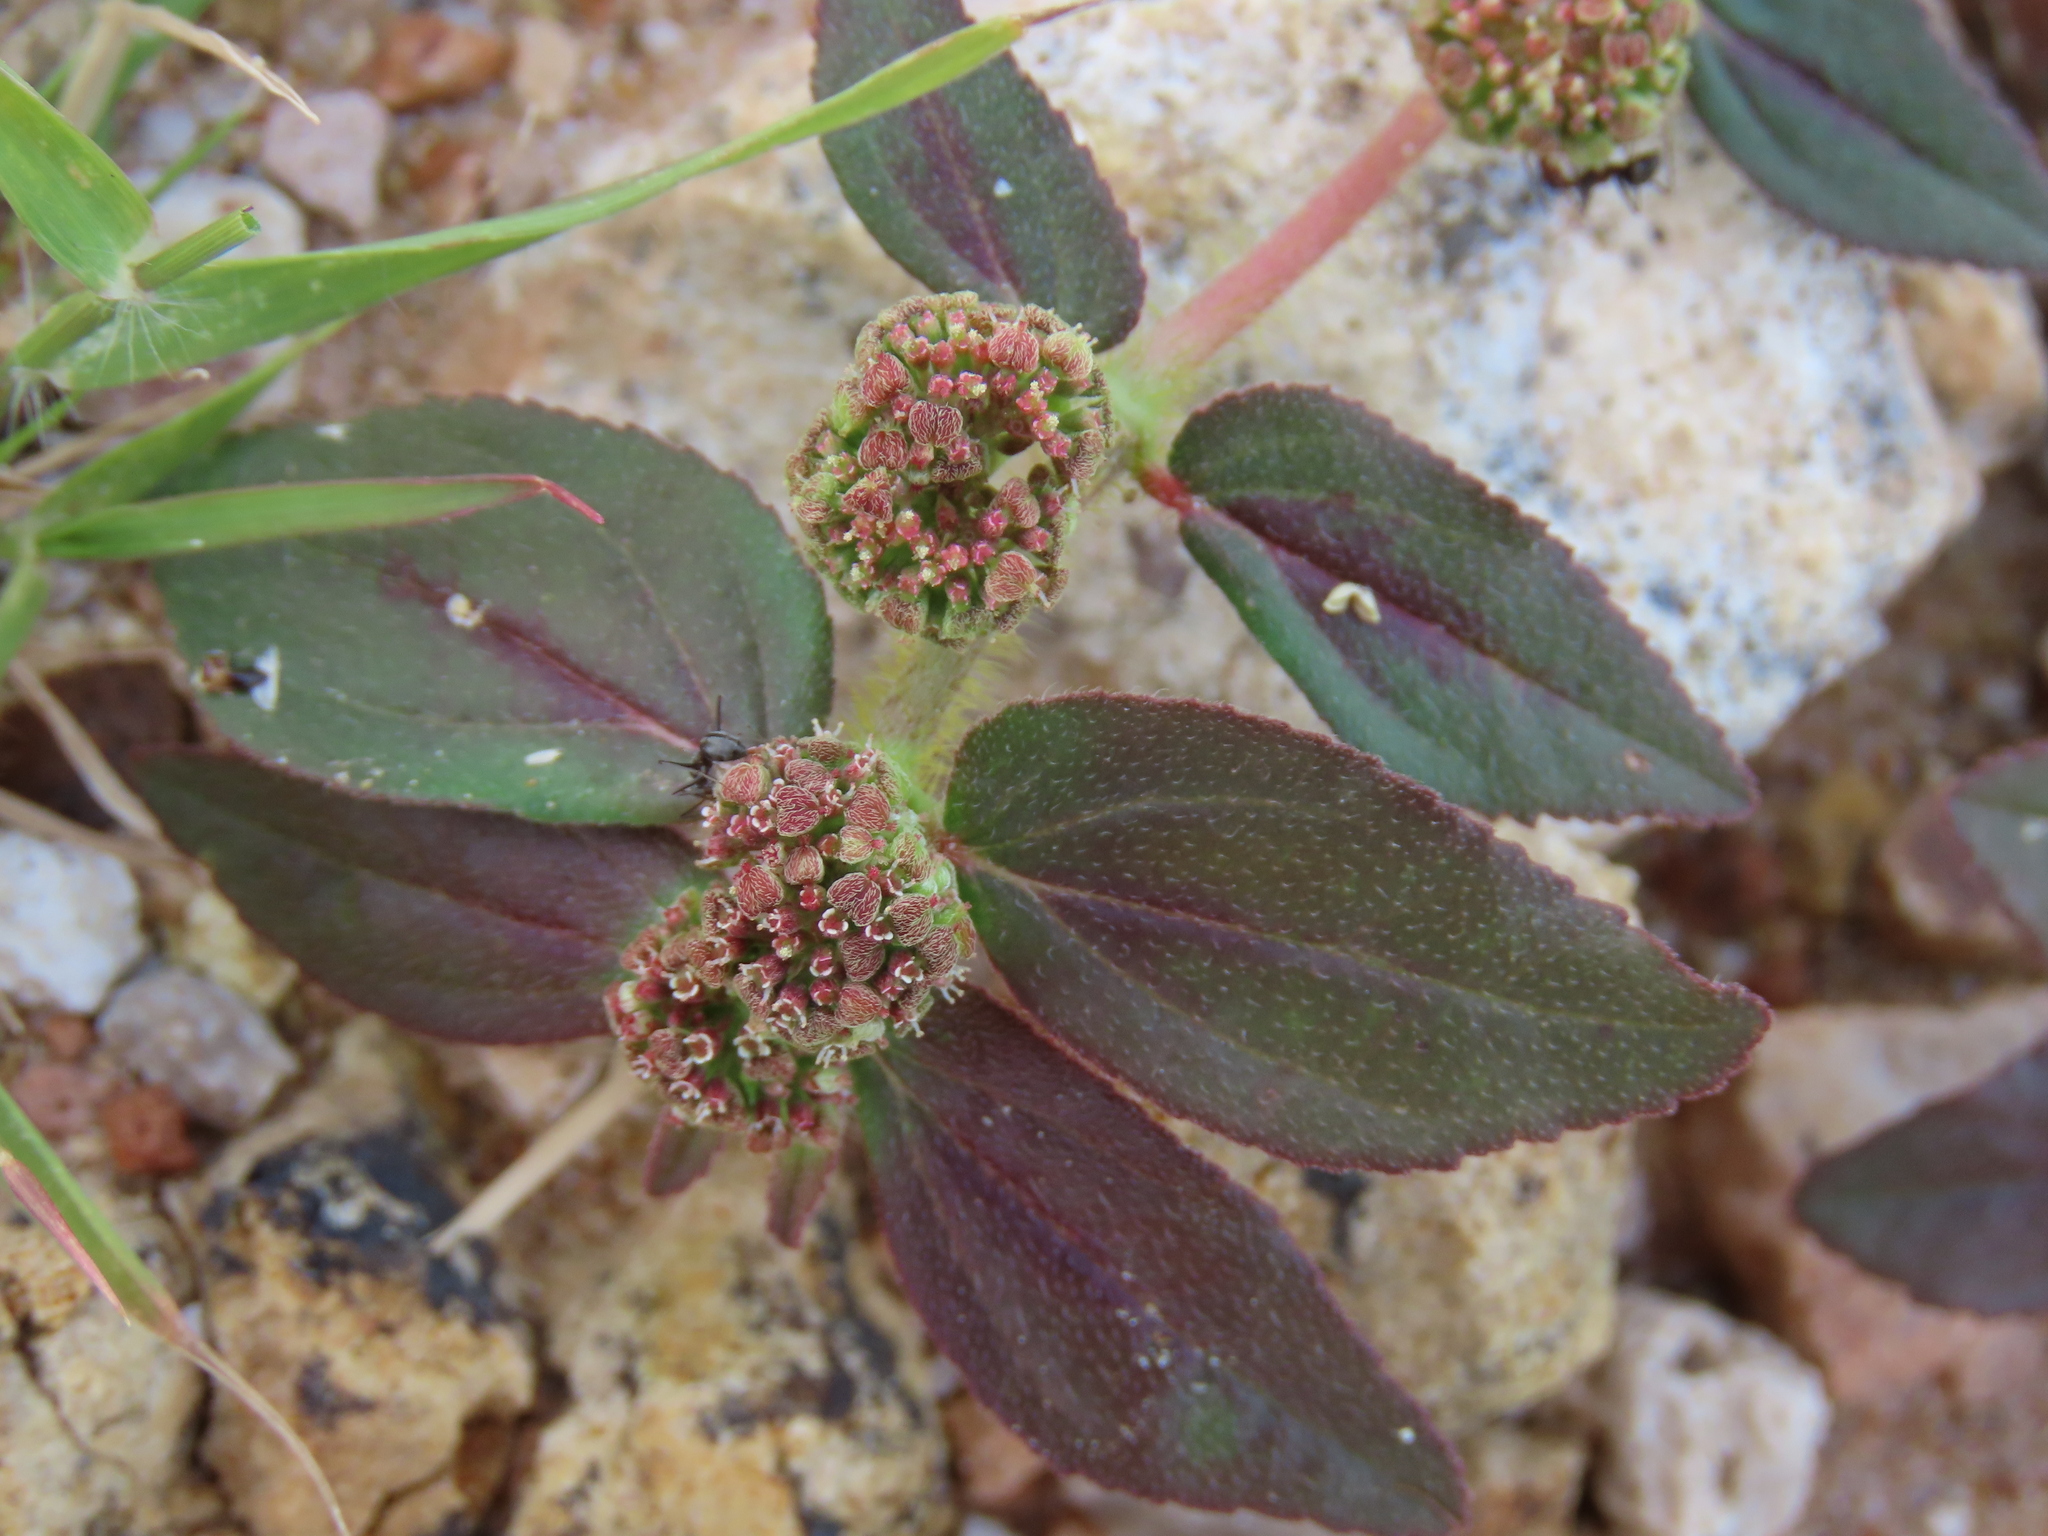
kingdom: Plantae
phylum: Tracheophyta
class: Magnoliopsida
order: Malpighiales
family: Euphorbiaceae
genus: Euphorbia
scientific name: Euphorbia hirta
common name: Pillpod sandmat
